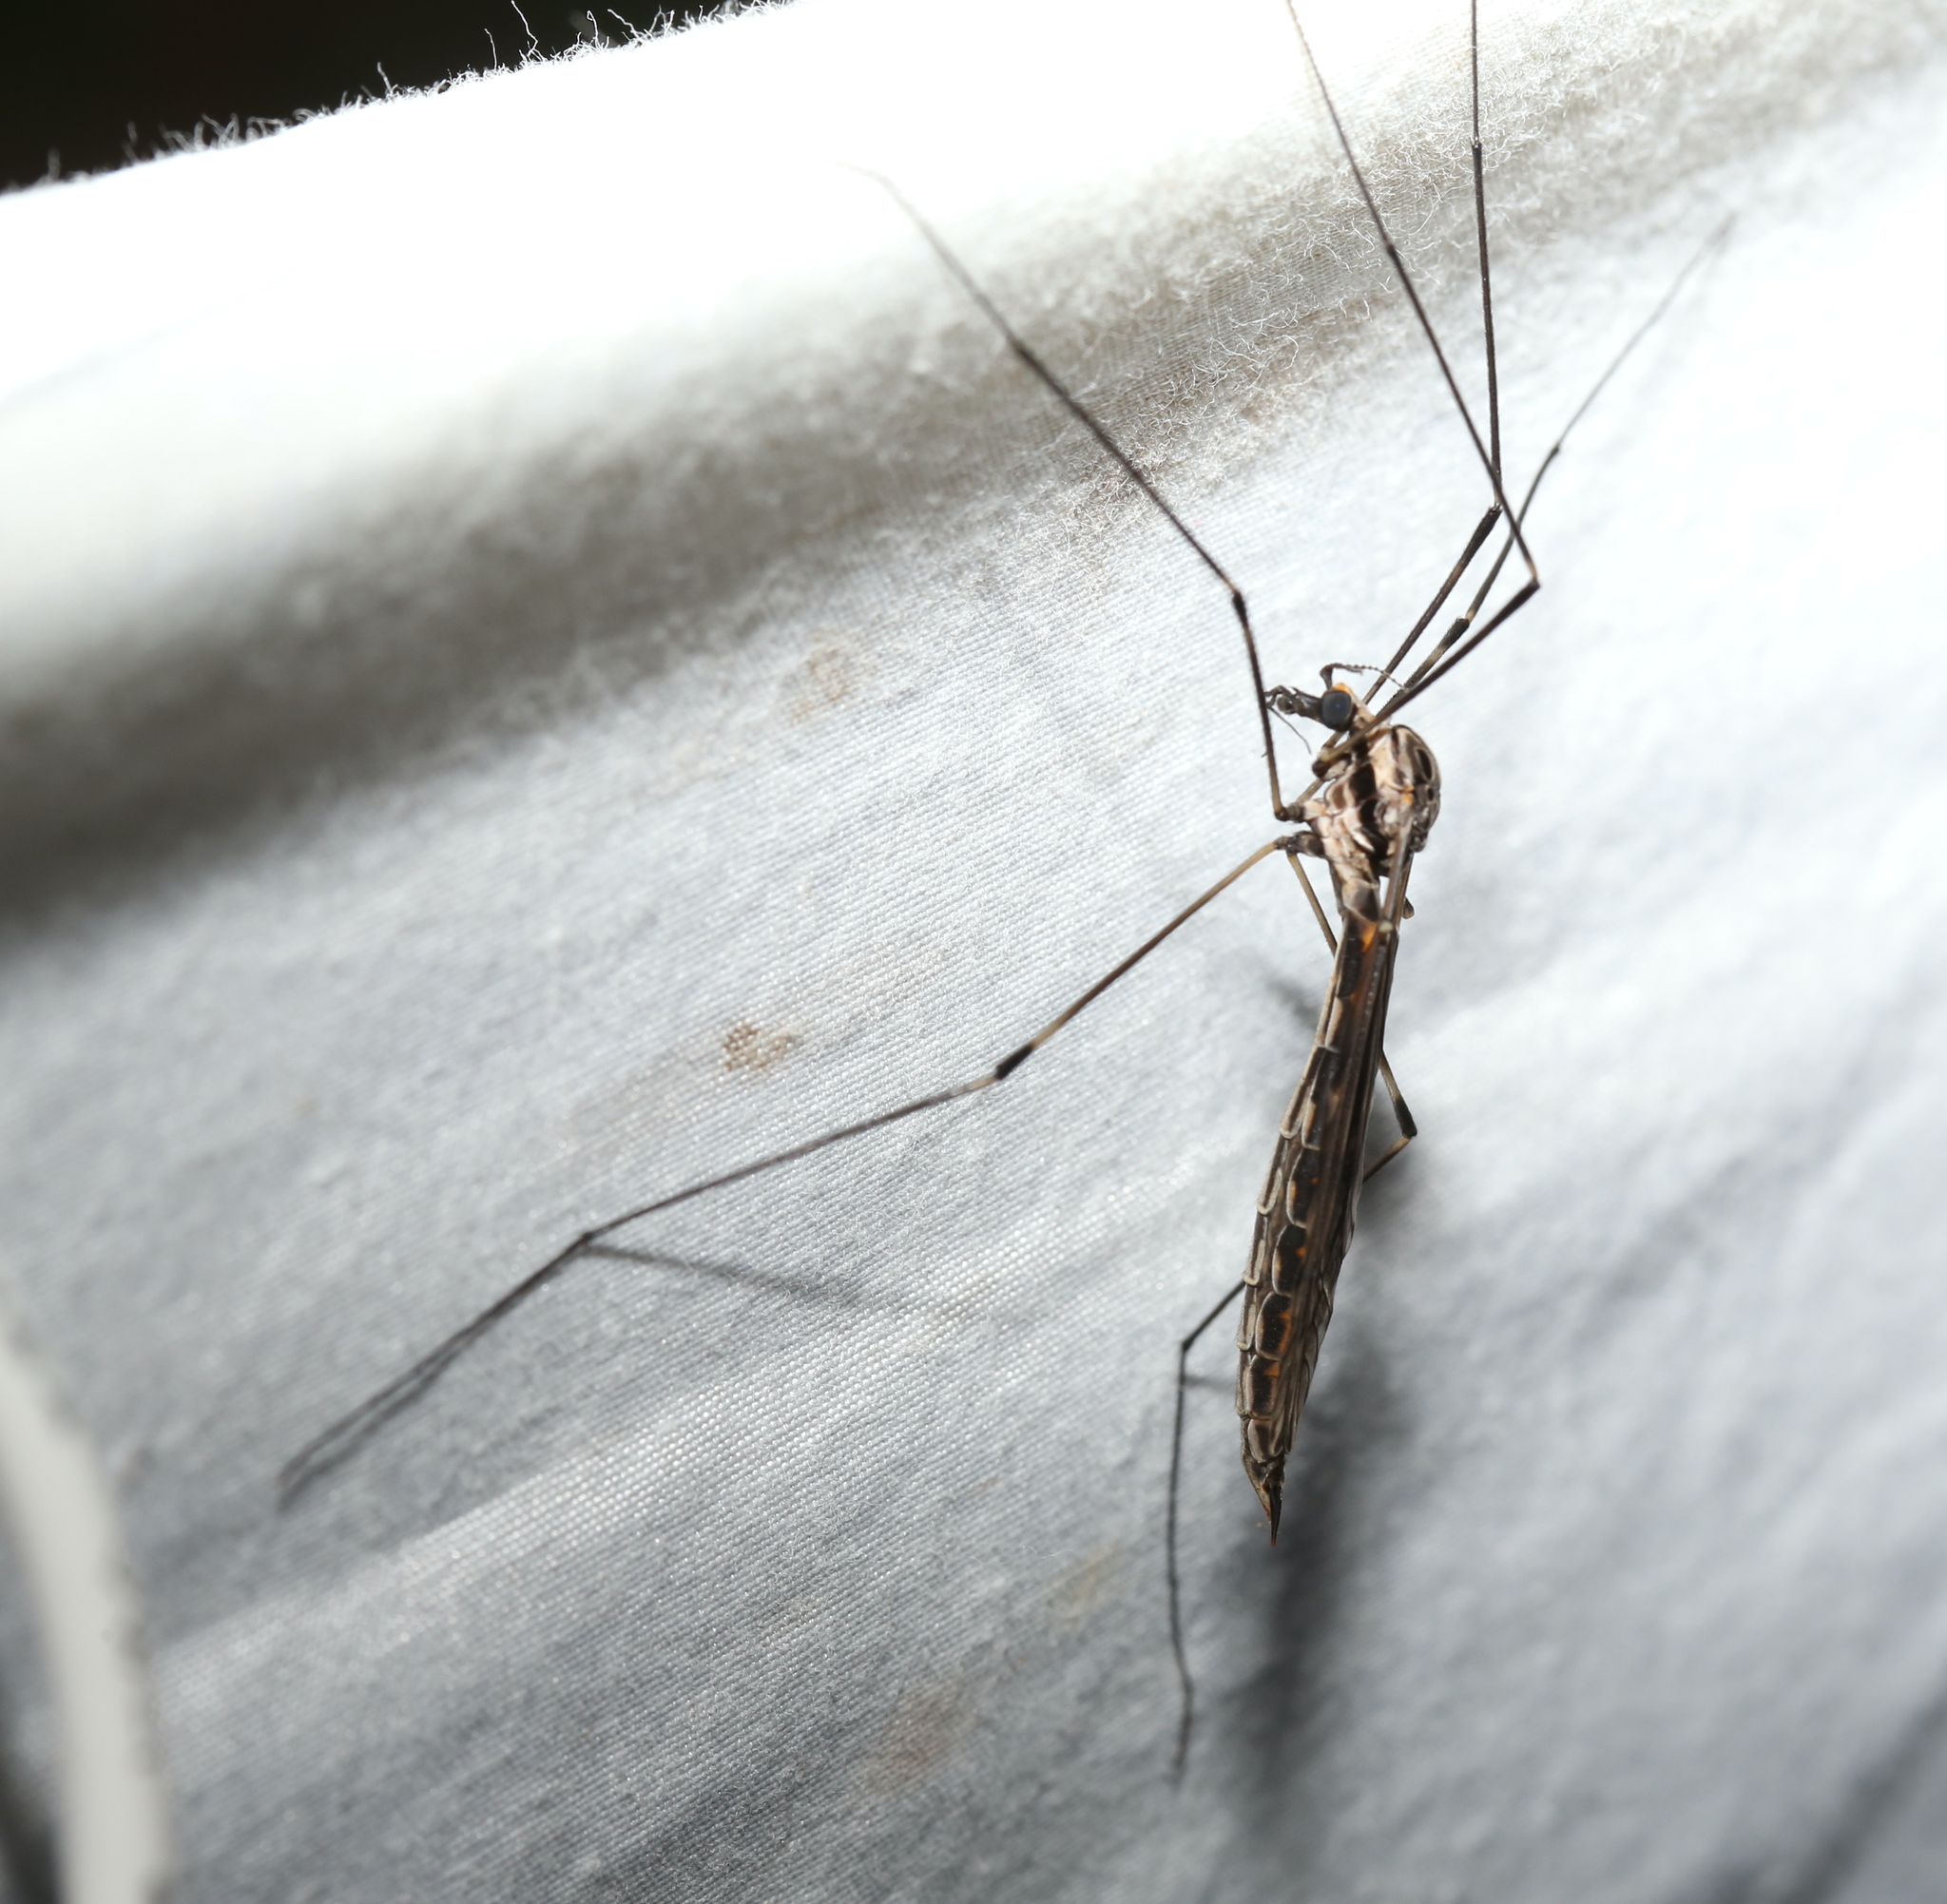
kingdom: Animalia
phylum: Arthropoda
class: Insecta
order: Diptera
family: Tipulidae
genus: Tipula
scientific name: Tipula abdominalis
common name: Giant crane fly
